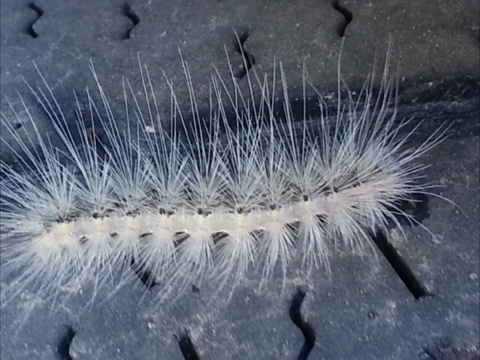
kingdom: Animalia
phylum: Arthropoda
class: Insecta
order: Lepidoptera
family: Erebidae
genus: Hyphantria
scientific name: Hyphantria cunea
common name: American white moth
